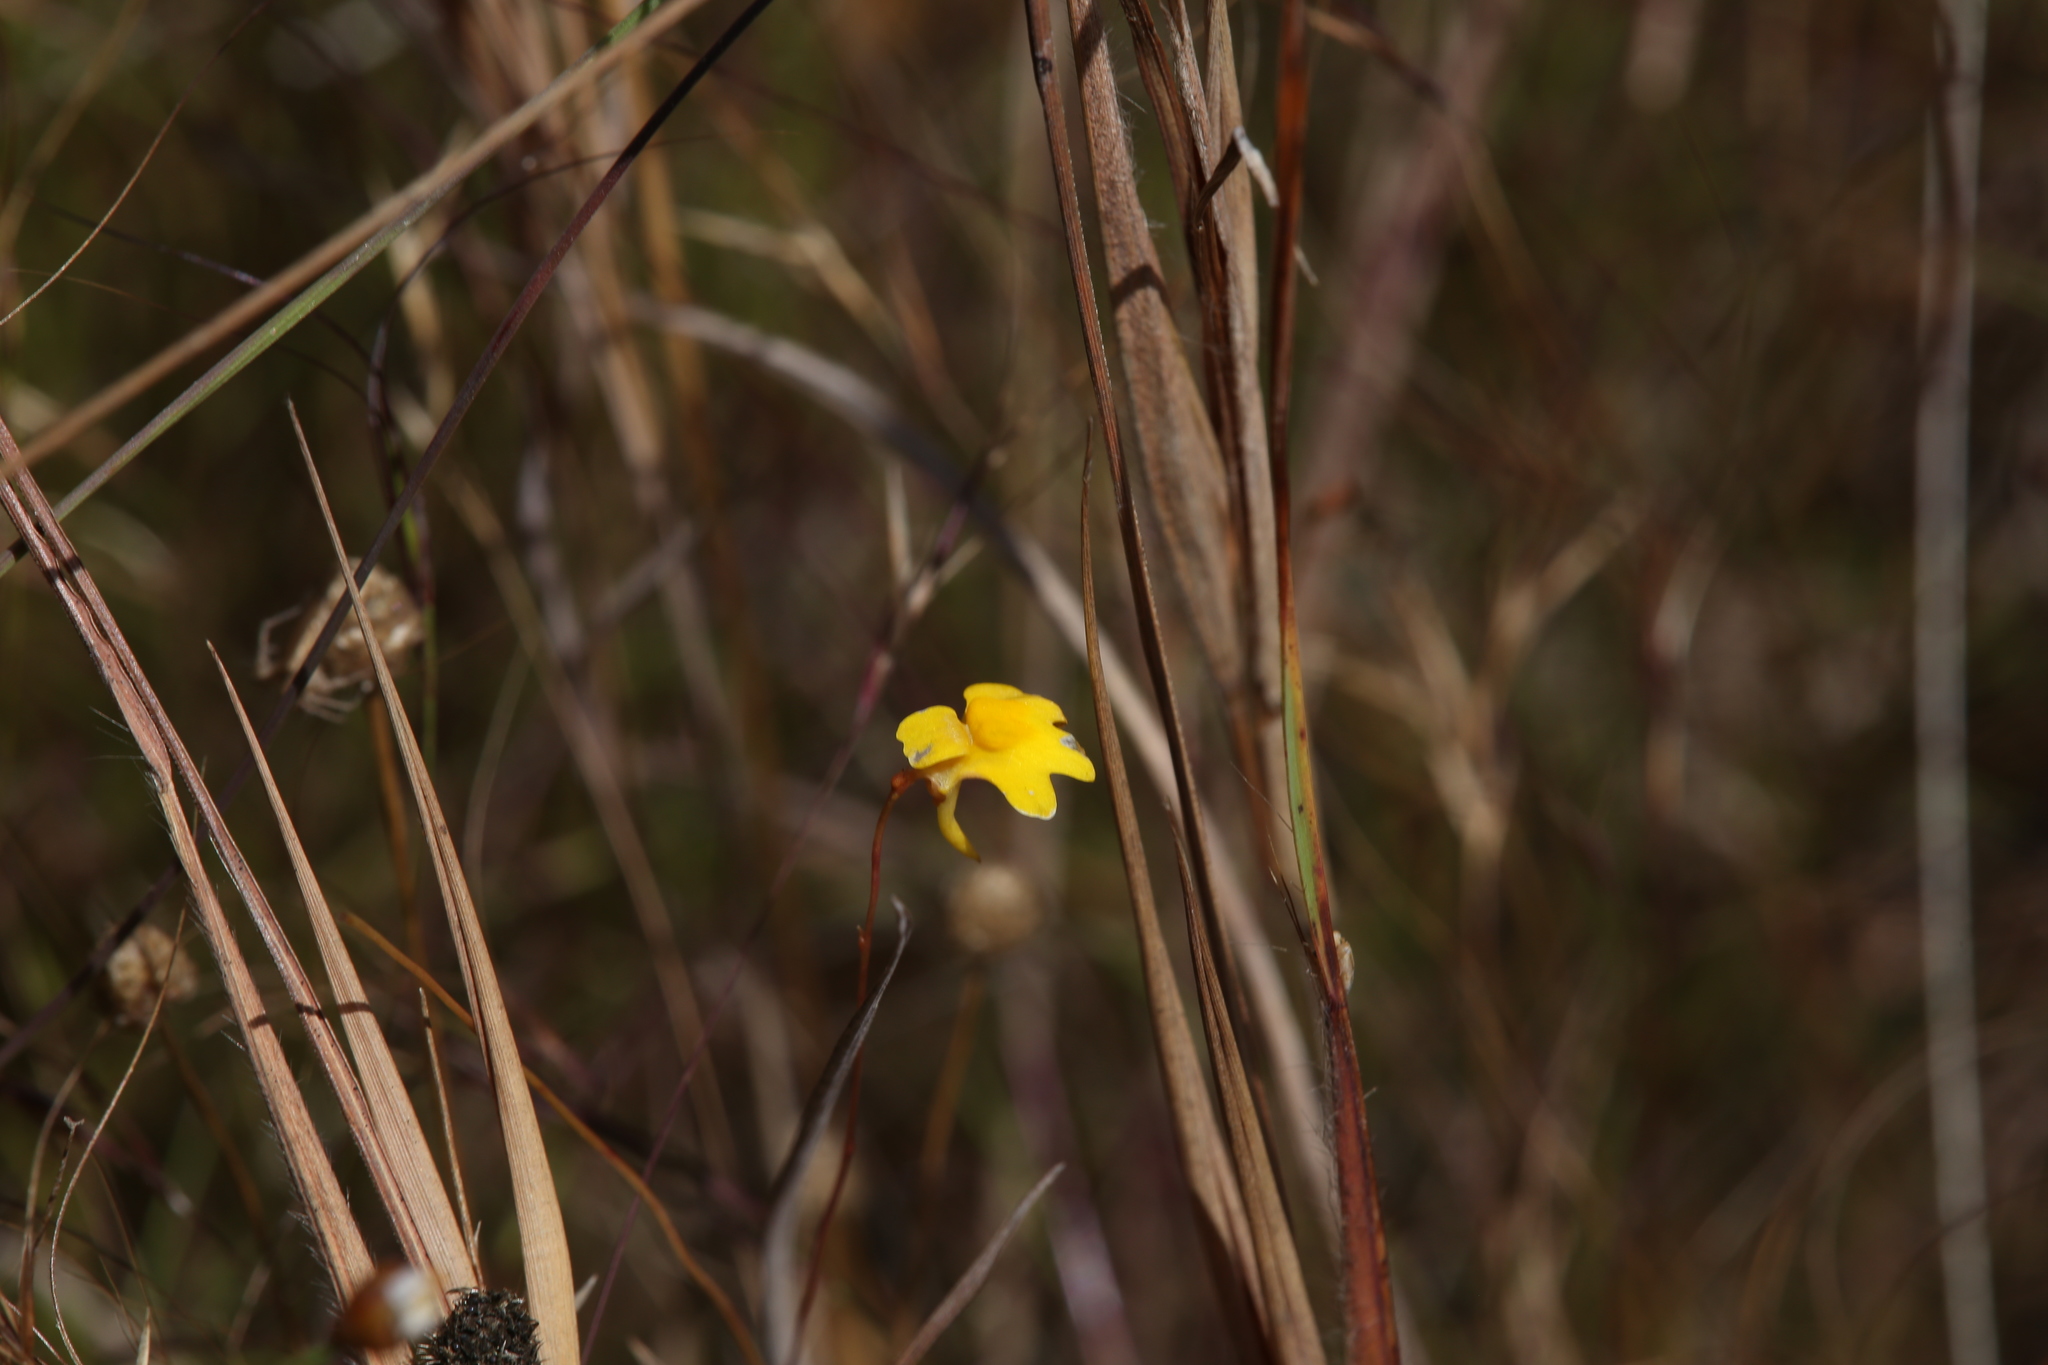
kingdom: Plantae
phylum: Tracheophyta
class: Magnoliopsida
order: Lamiales
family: Lentibulariaceae
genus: Utricularia
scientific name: Utricularia chrysantha
